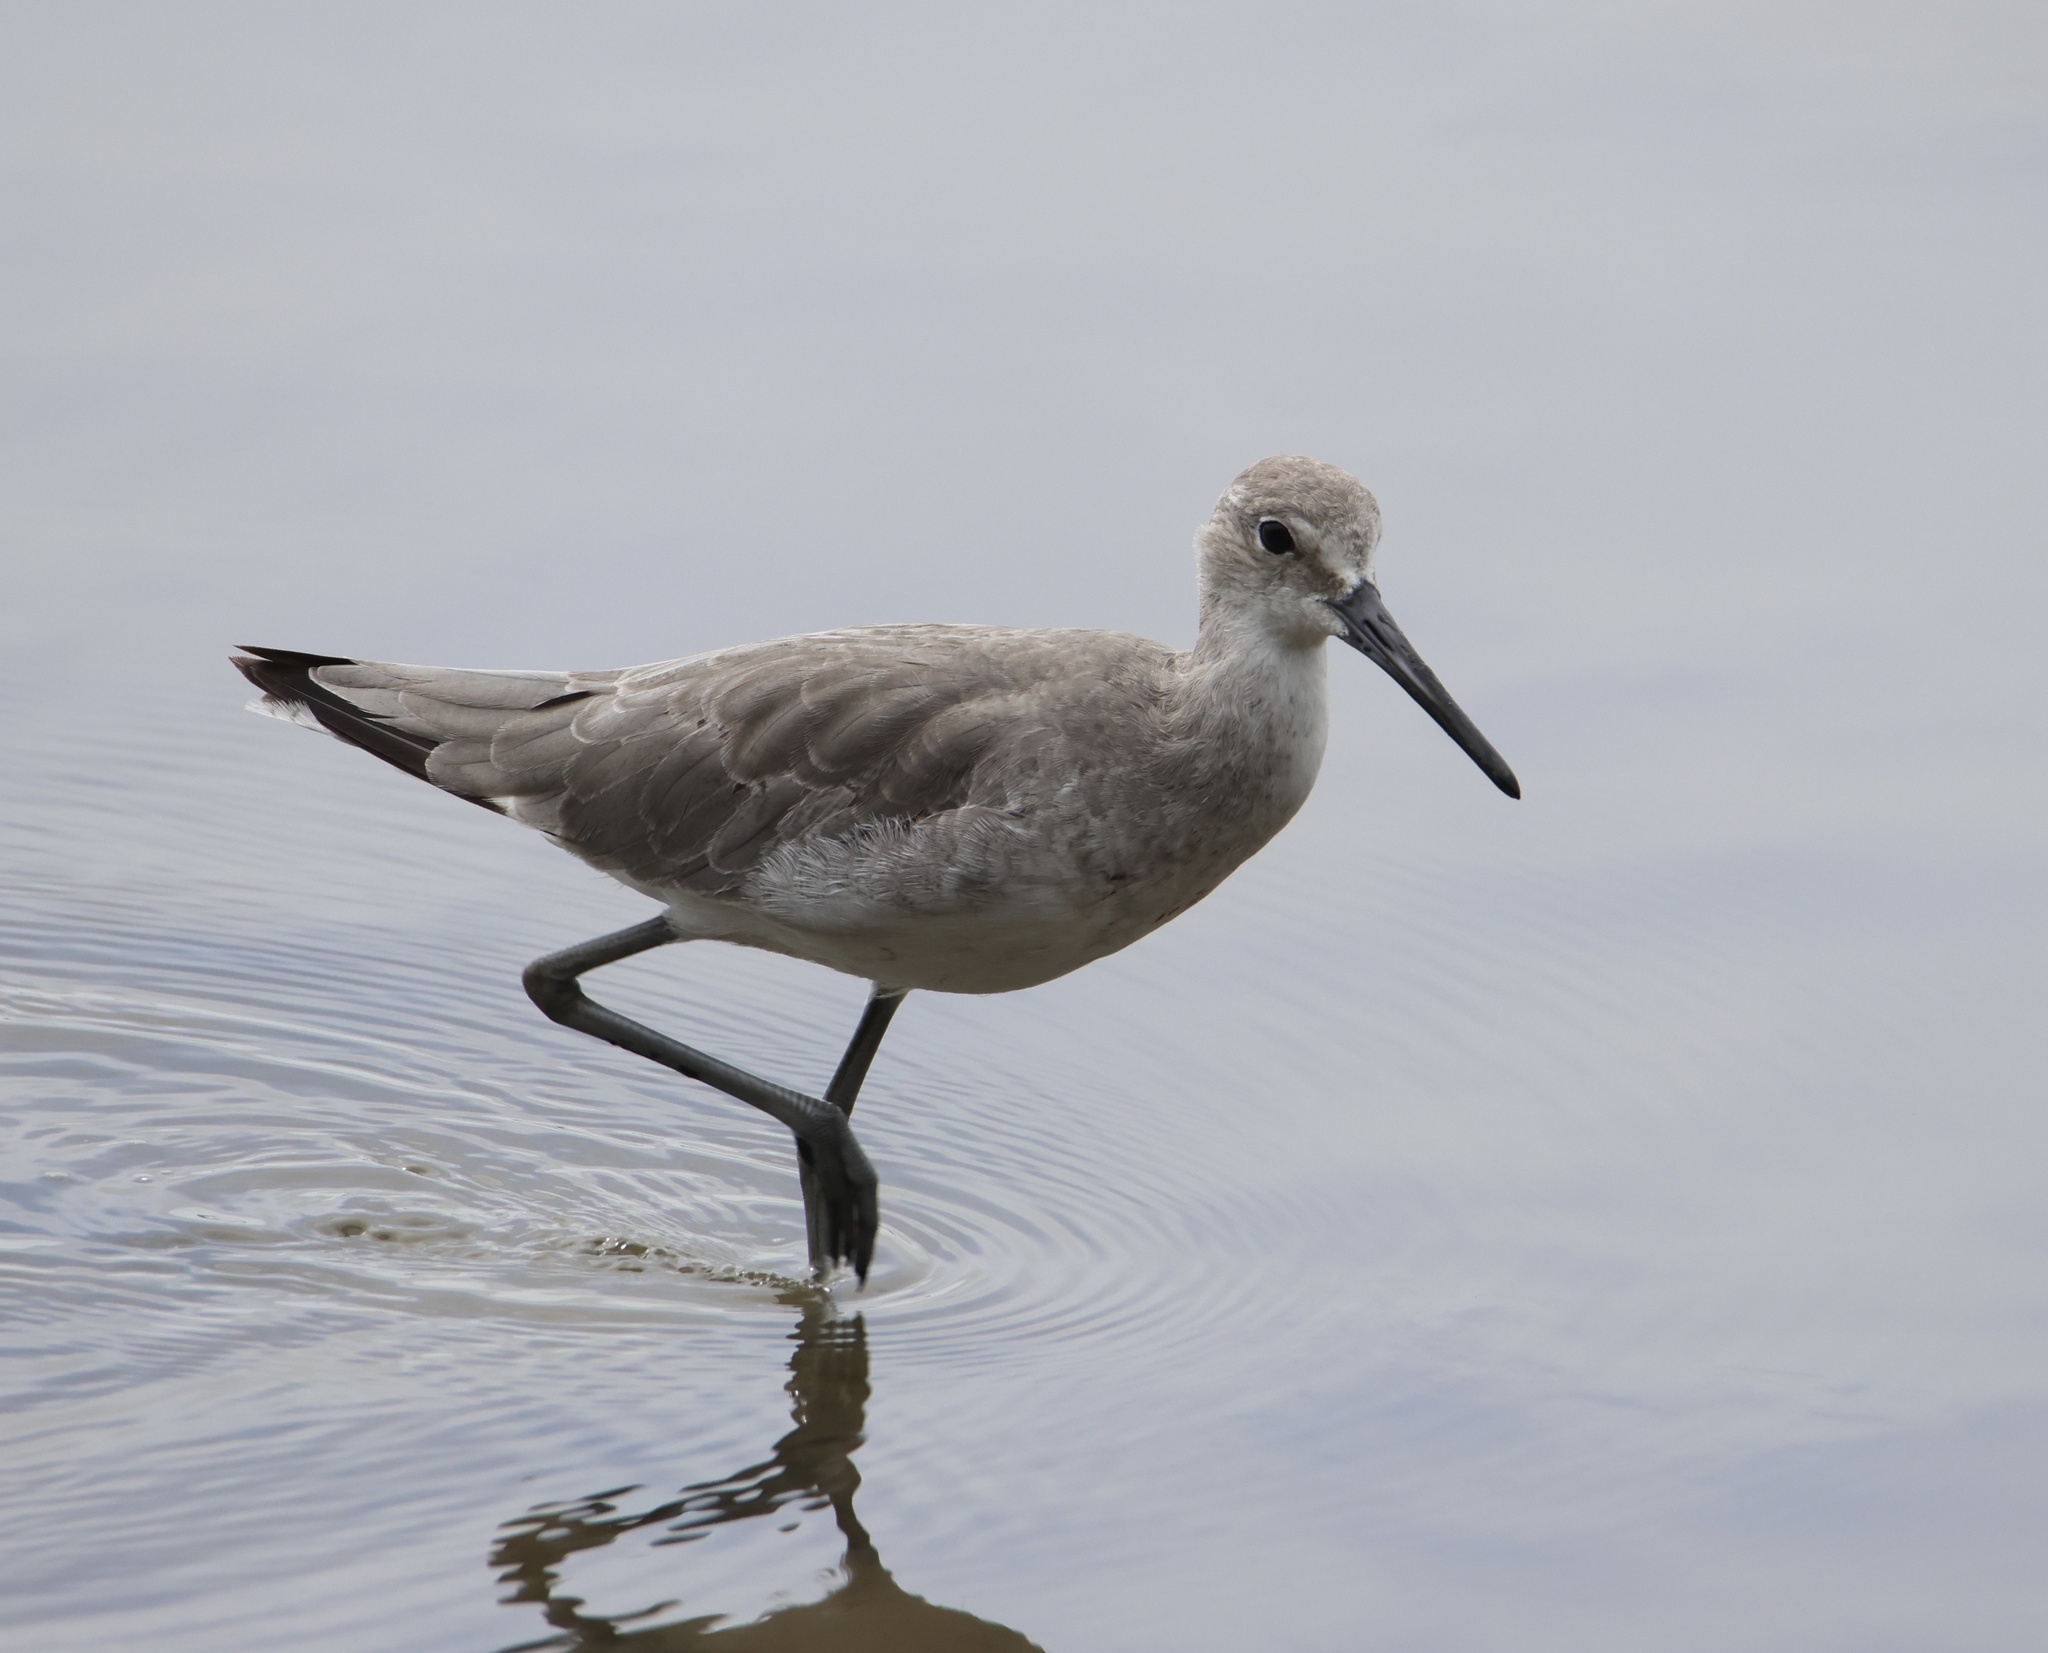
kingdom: Animalia
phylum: Chordata
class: Aves
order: Charadriiformes
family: Scolopacidae
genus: Tringa
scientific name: Tringa semipalmata
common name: Willet
